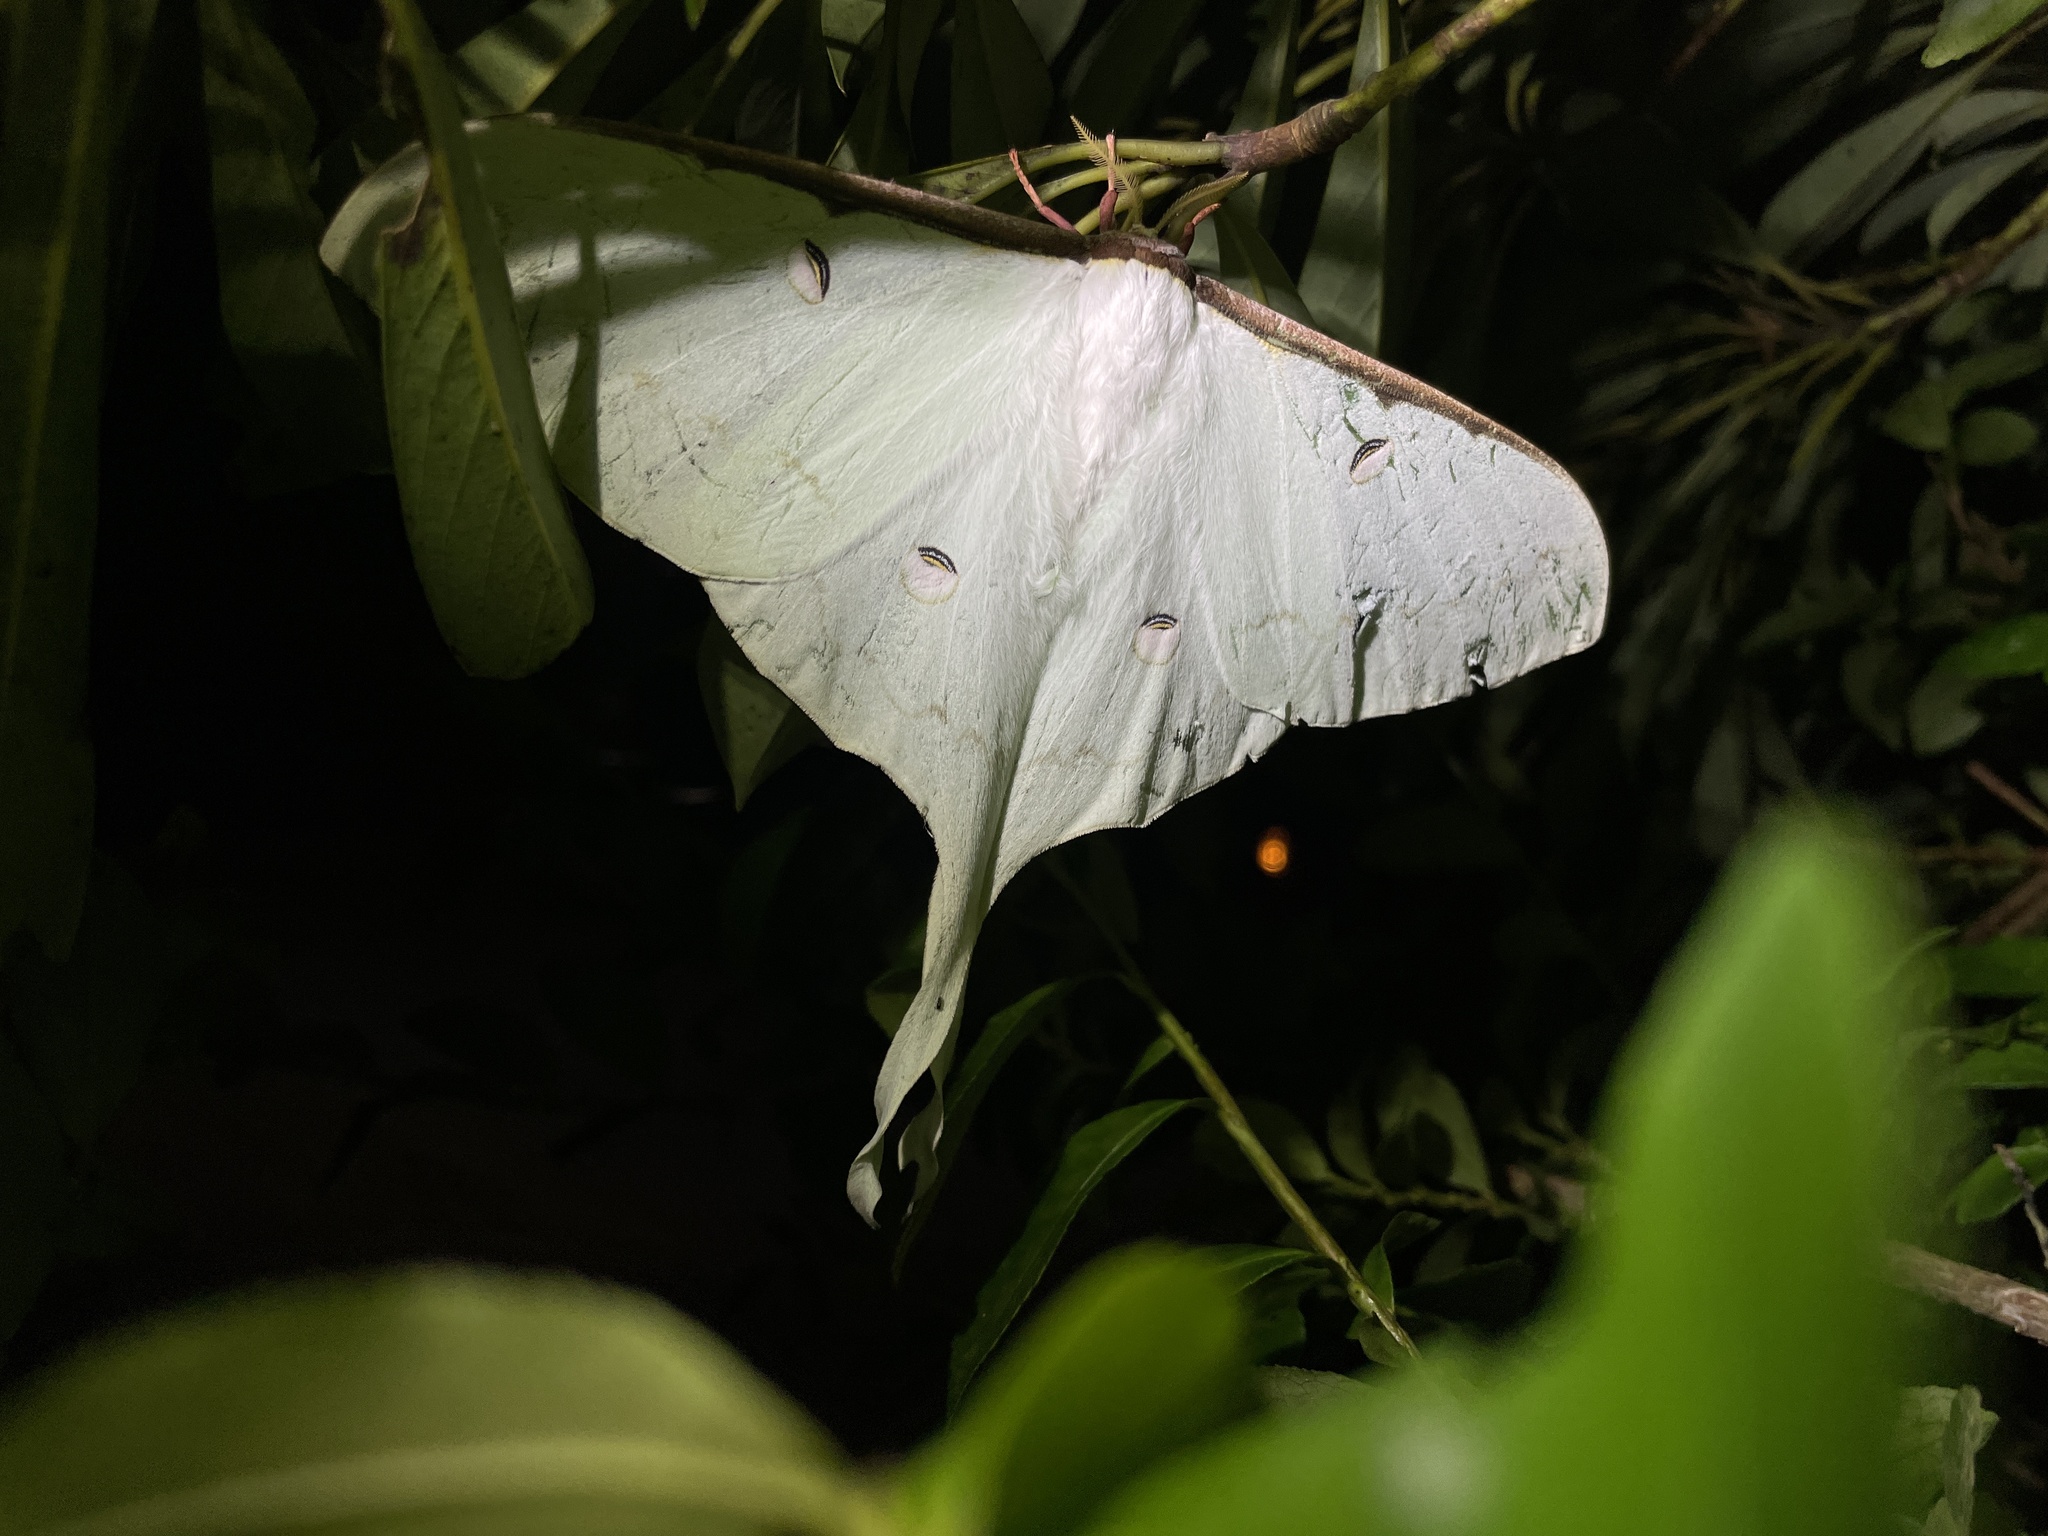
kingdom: Animalia
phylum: Arthropoda
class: Insecta
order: Lepidoptera
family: Saturniidae
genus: Actias
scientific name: Actias sinensis
